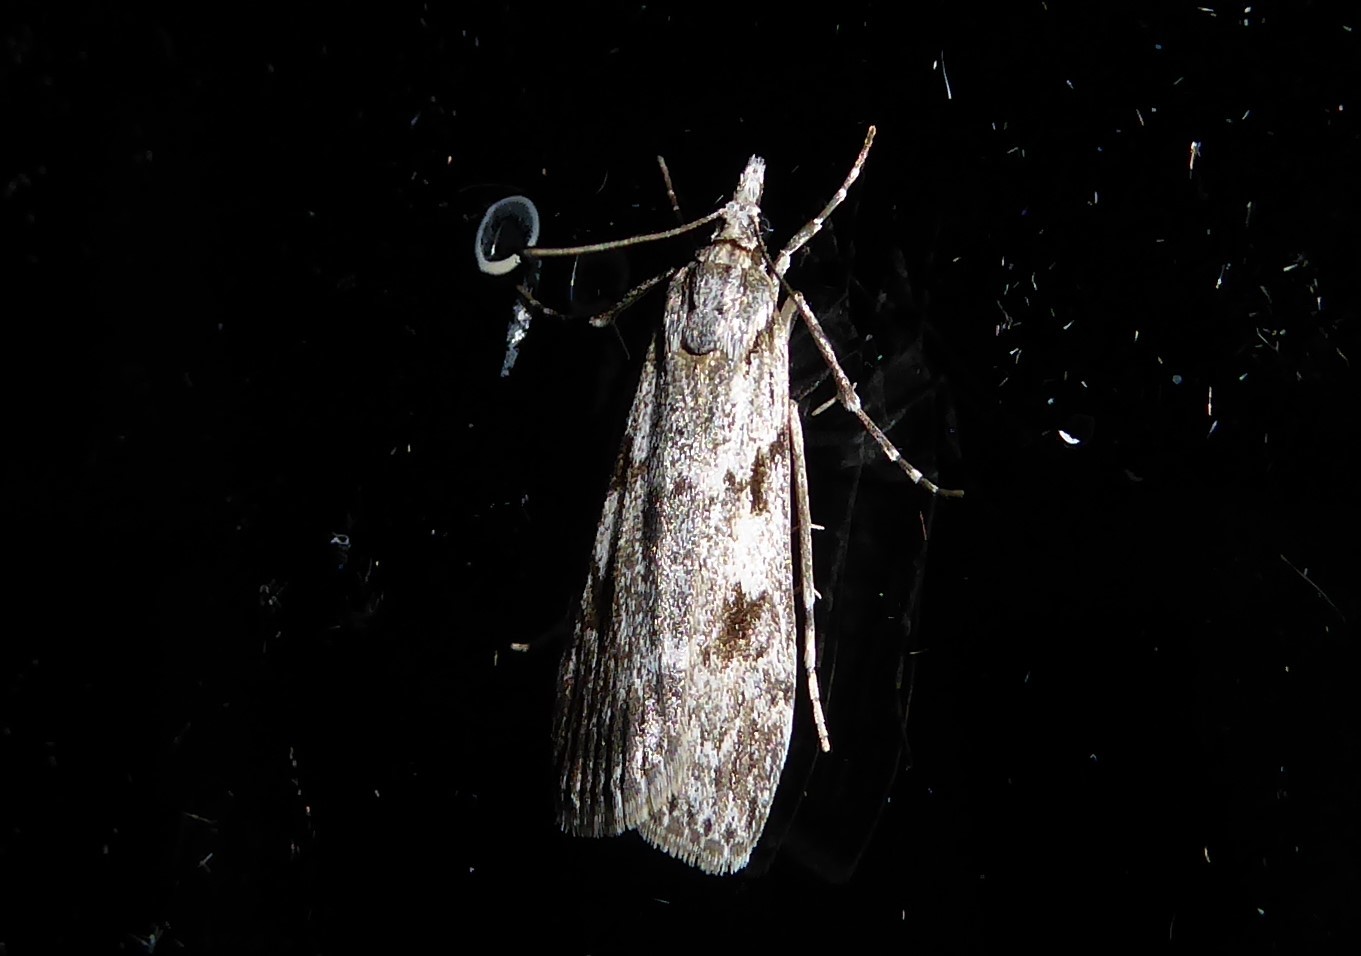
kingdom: Animalia
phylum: Arthropoda
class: Insecta
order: Lepidoptera
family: Crambidae
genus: Scoparia
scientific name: Scoparia halopis
